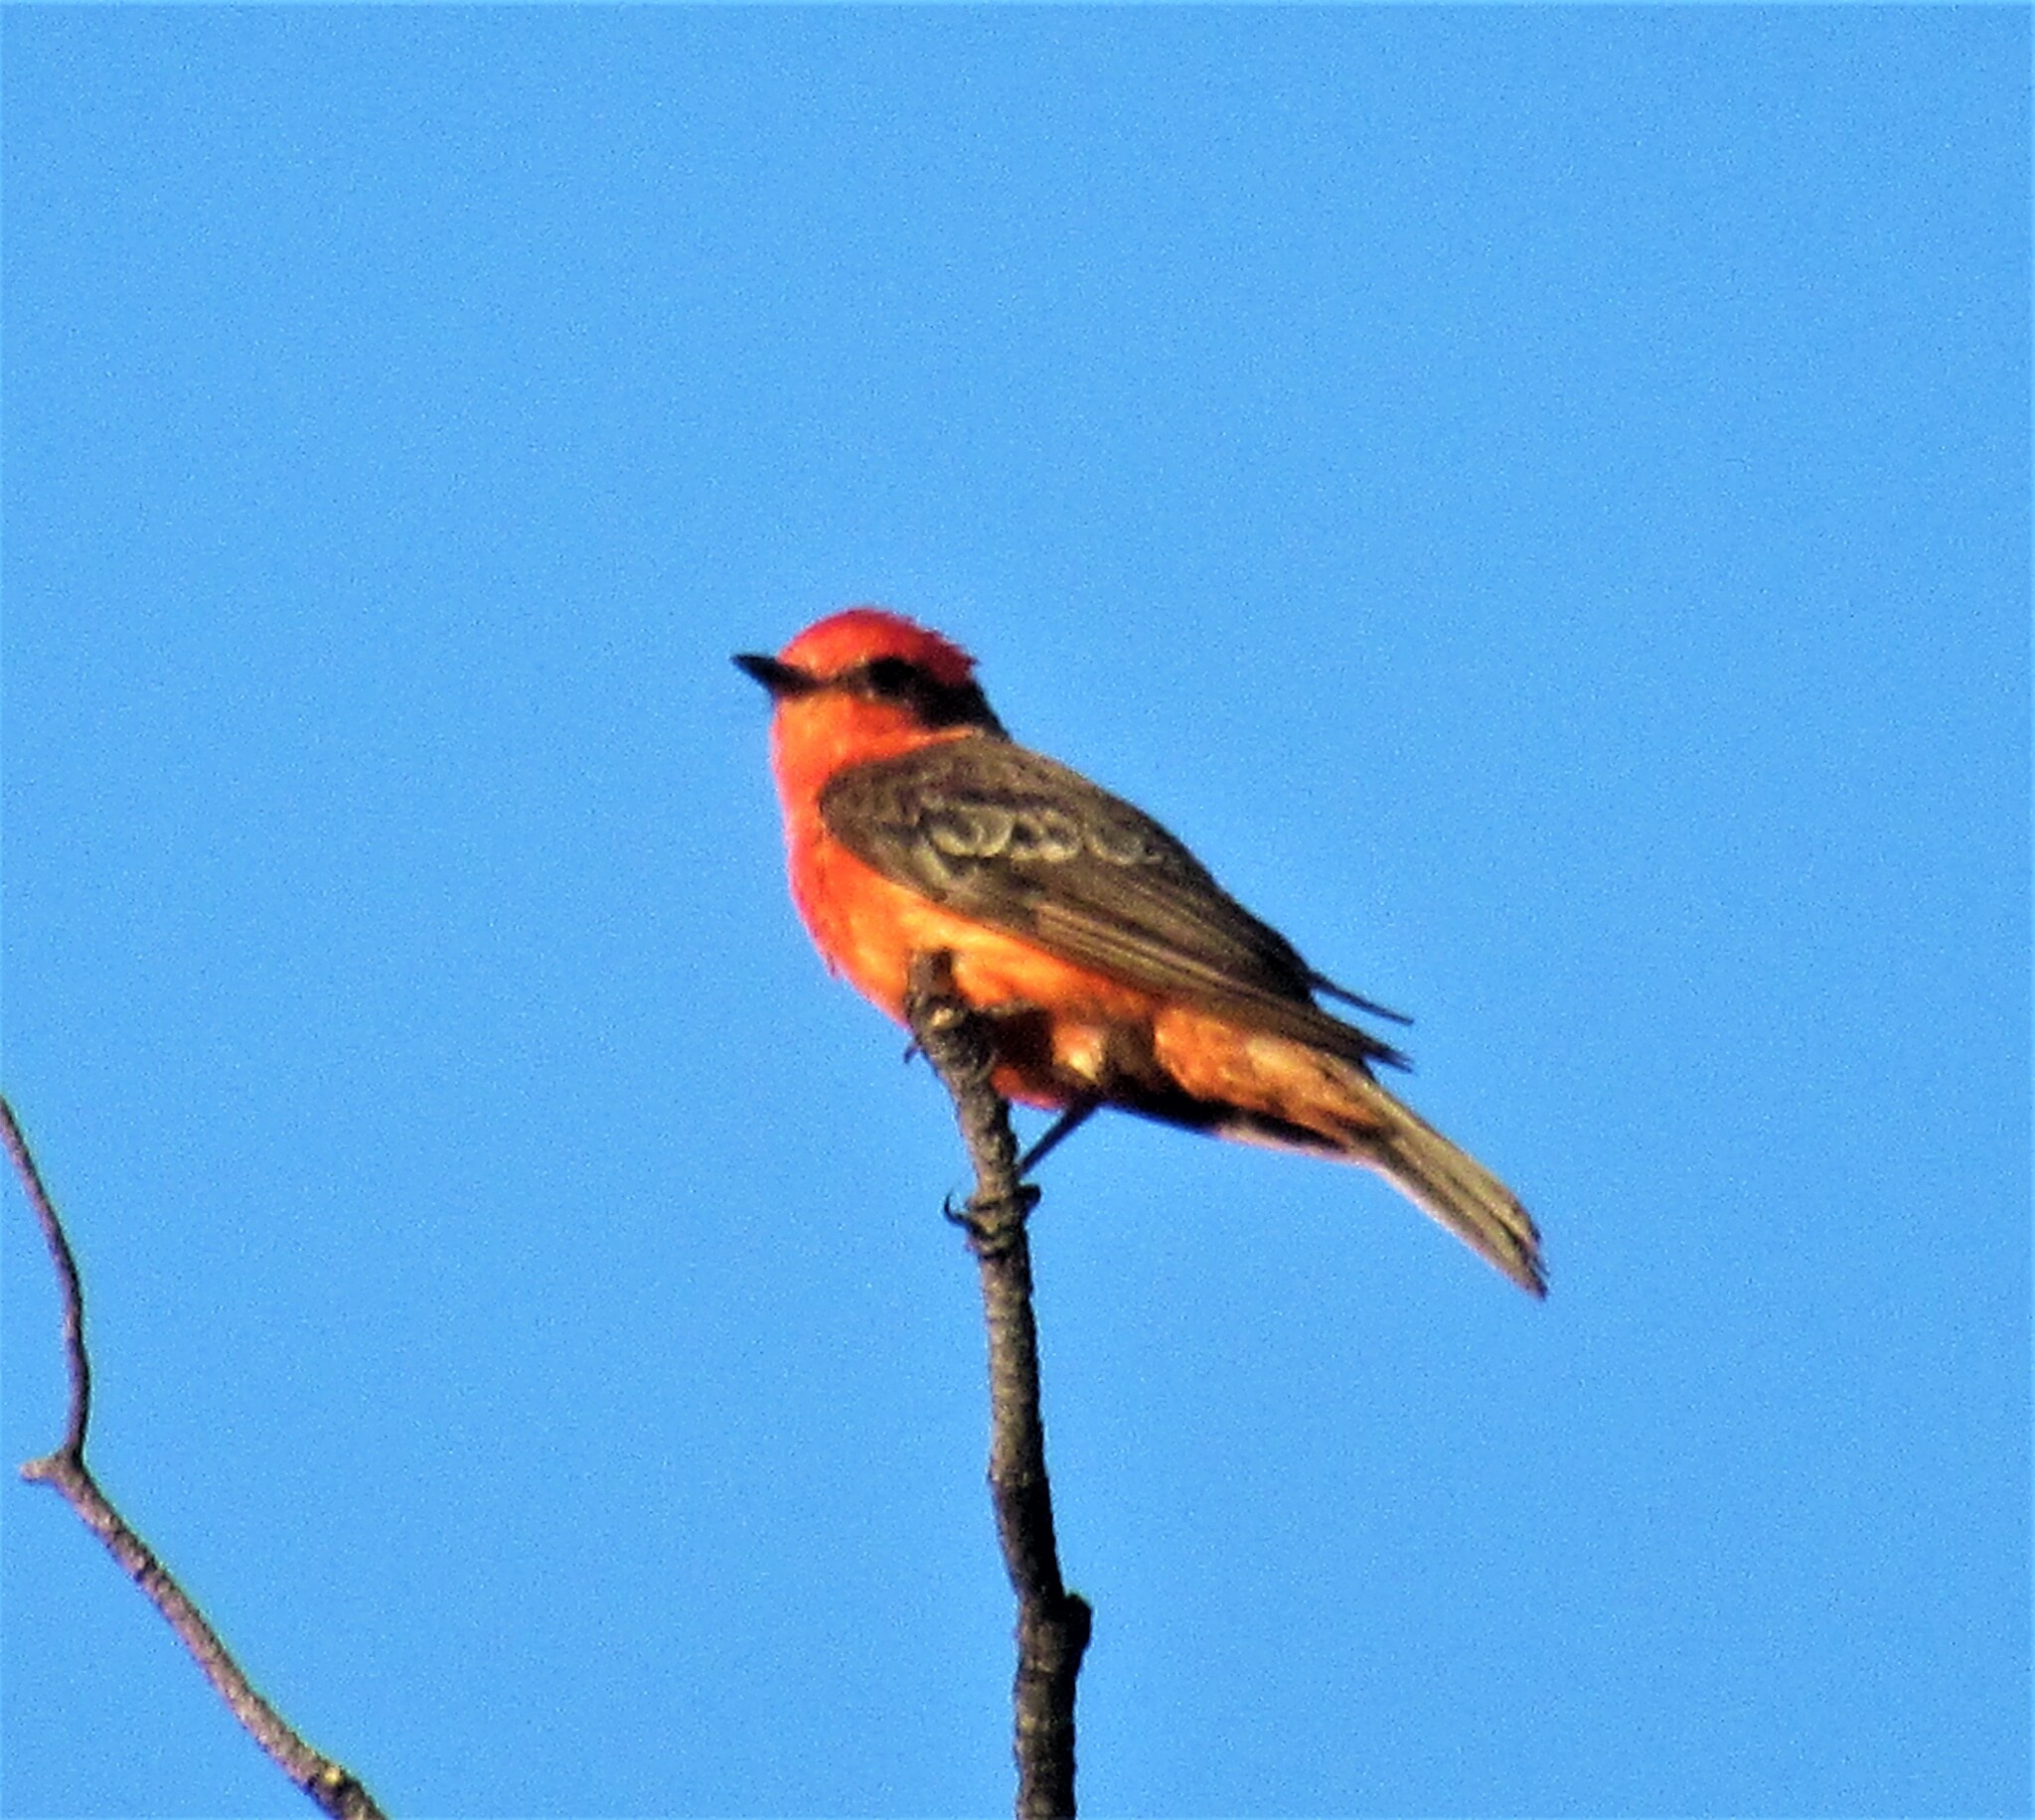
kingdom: Animalia
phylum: Chordata
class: Aves
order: Passeriformes
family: Tyrannidae
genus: Pyrocephalus
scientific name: Pyrocephalus rubinus
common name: Vermilion flycatcher
